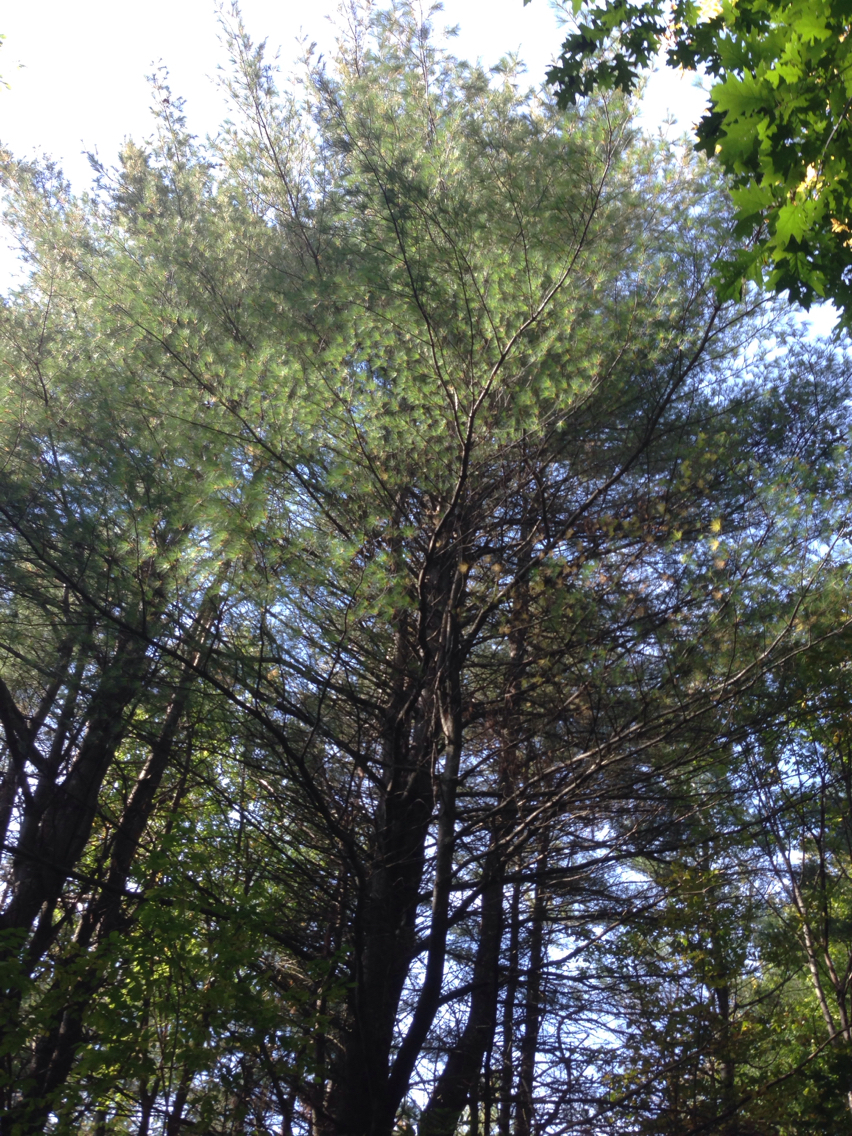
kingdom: Plantae
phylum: Tracheophyta
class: Pinopsida
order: Pinales
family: Pinaceae
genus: Pinus
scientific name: Pinus strobus
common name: Weymouth pine
